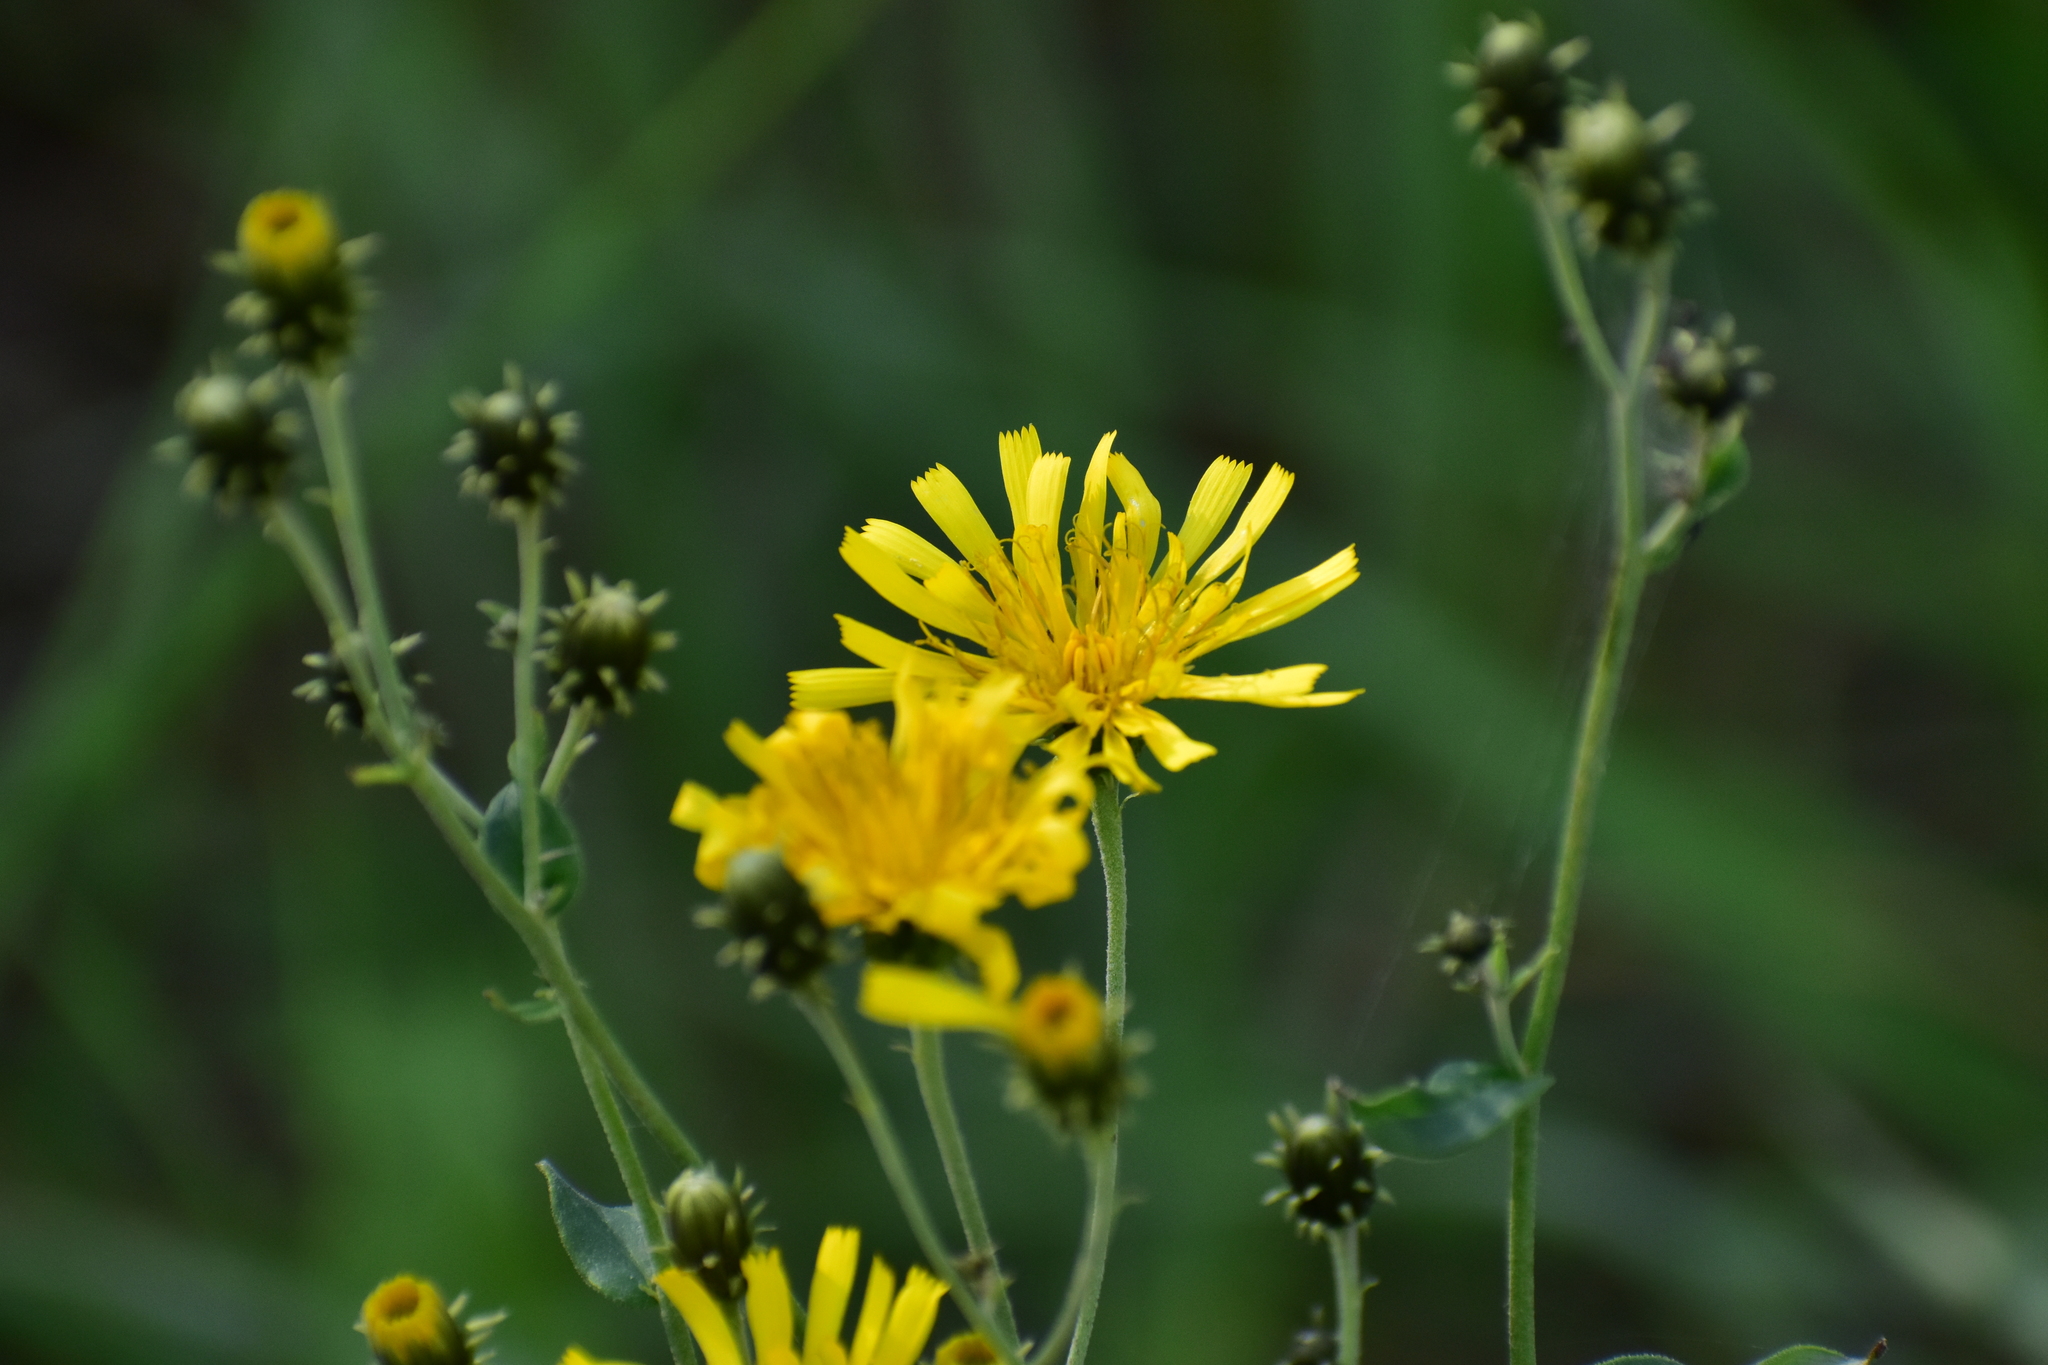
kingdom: Plantae
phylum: Tracheophyta
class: Magnoliopsida
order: Asterales
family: Asteraceae
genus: Hieracium
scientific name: Hieracium umbellatum
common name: Northern hawkweed
